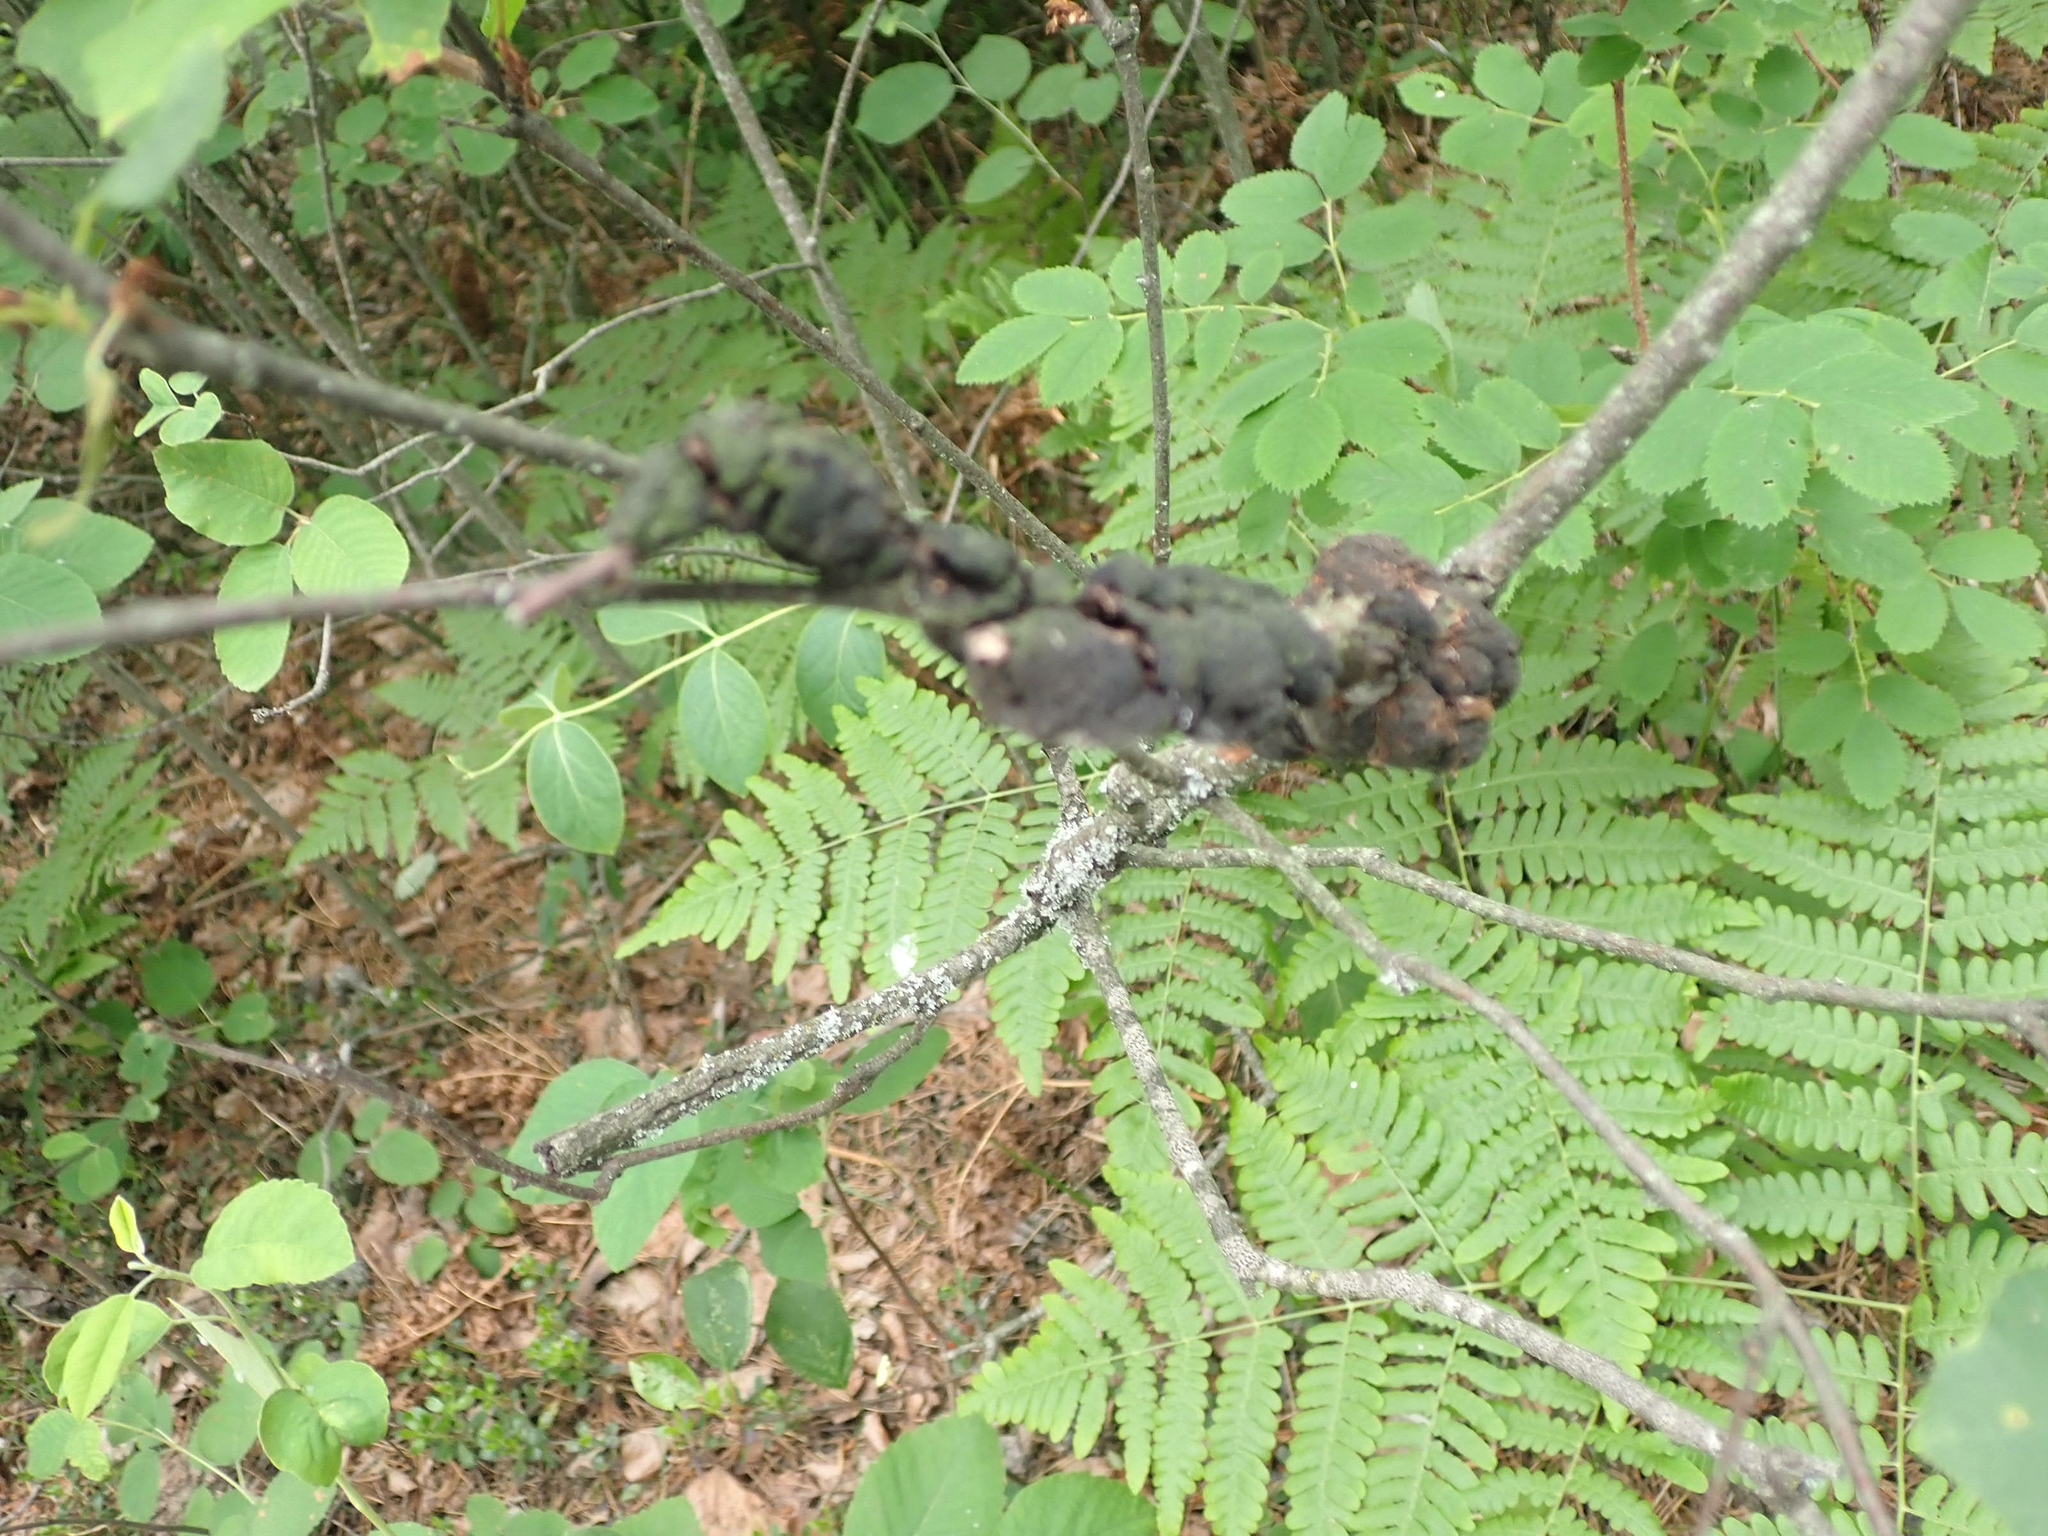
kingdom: Fungi
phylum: Ascomycota
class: Dothideomycetes
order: Venturiales
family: Venturiaceae
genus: Apiosporina
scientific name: Apiosporina morbosa
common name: Black knot
